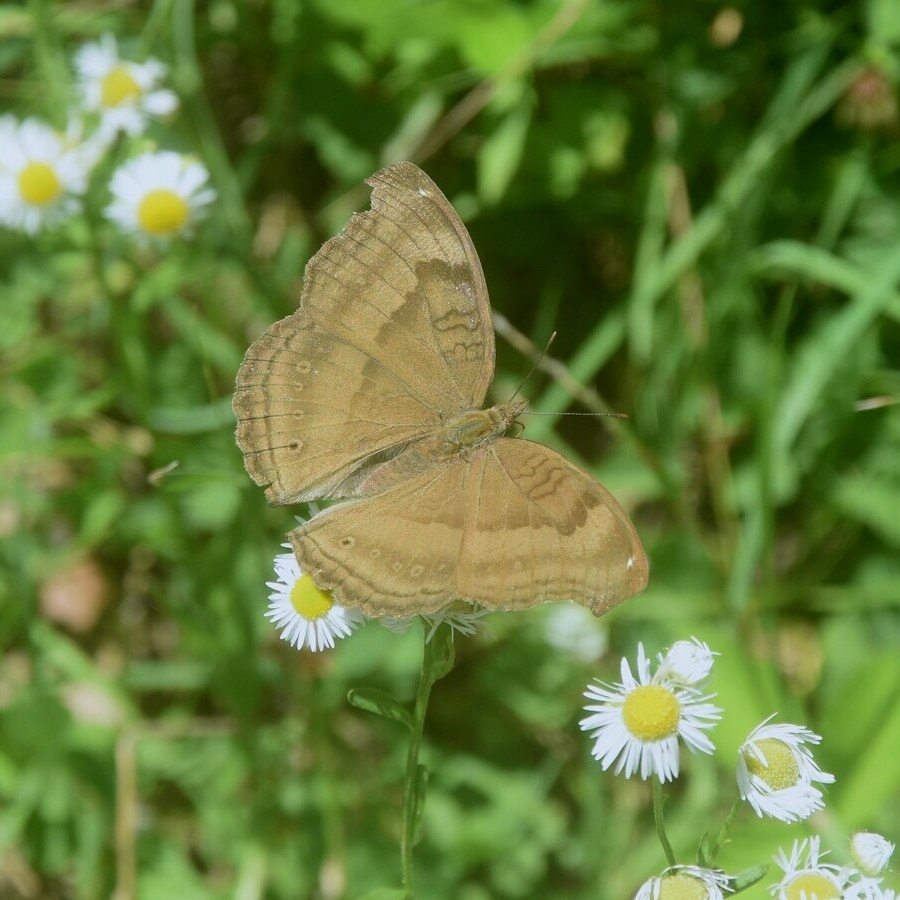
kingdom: Animalia
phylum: Arthropoda
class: Insecta
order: Lepidoptera
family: Nymphalidae
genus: Junonia
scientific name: Junonia iphita
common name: Chocolate pansy
